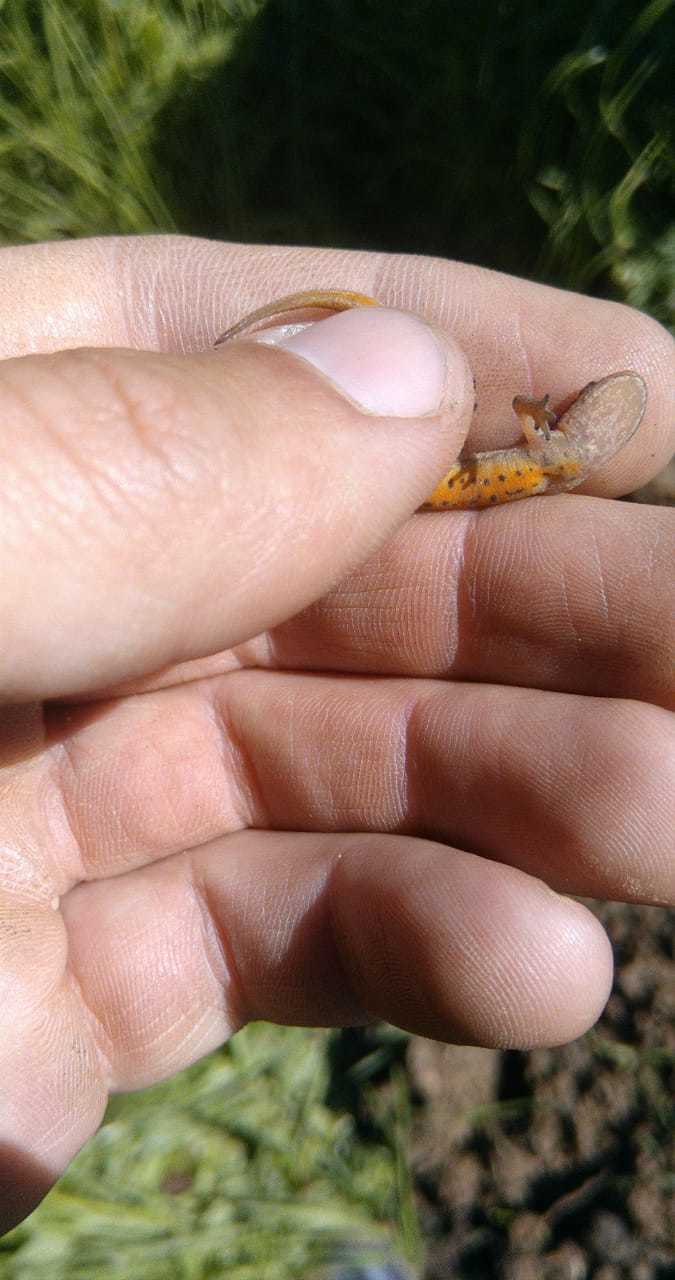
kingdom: Animalia
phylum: Chordata
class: Amphibia
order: Caudata
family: Salamandridae
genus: Lissotriton
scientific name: Lissotriton vulgaris
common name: Smooth newt
